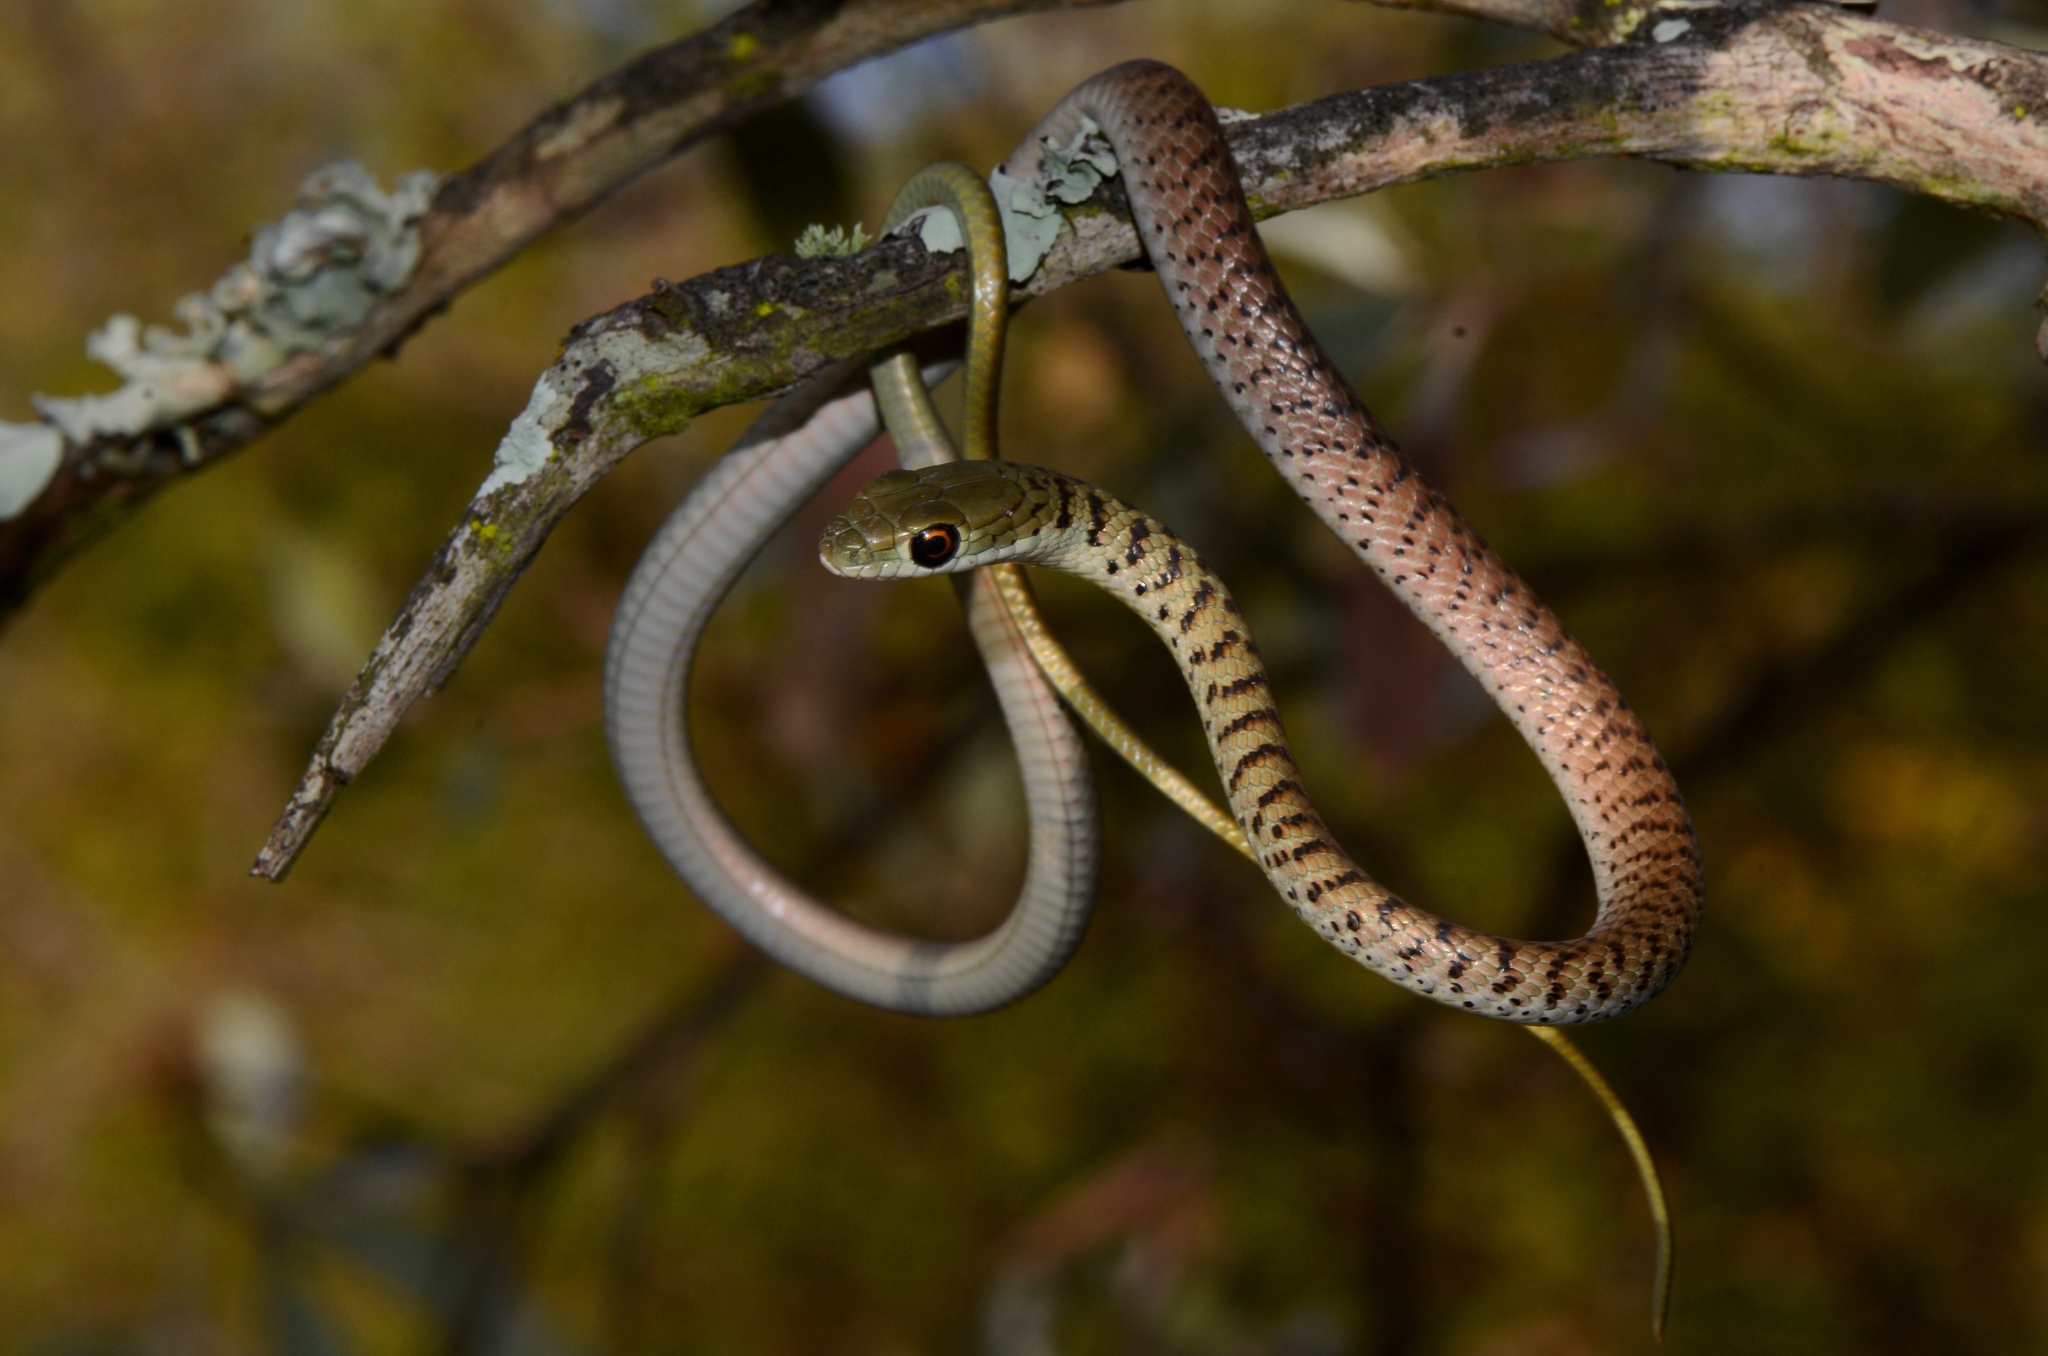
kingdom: Animalia
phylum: Chordata
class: Squamata
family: Colubridae
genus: Philothamnus
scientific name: Philothamnus semivariegatus
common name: Spotted bush snake
